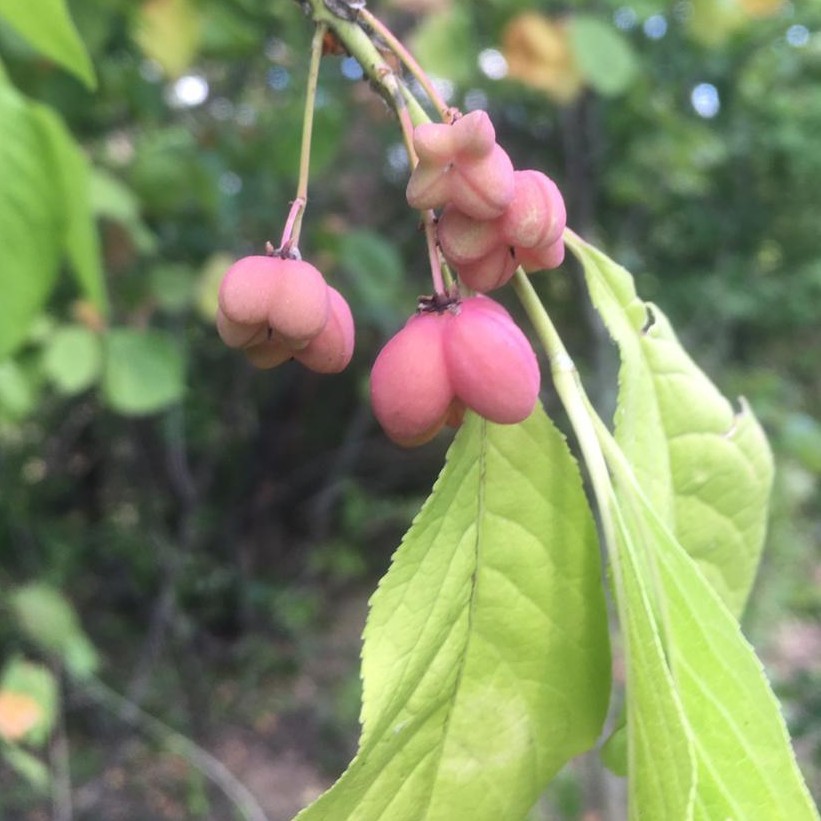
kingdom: Plantae
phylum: Tracheophyta
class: Magnoliopsida
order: Celastrales
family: Celastraceae
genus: Euonymus
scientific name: Euonymus europaeus
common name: Spindle
